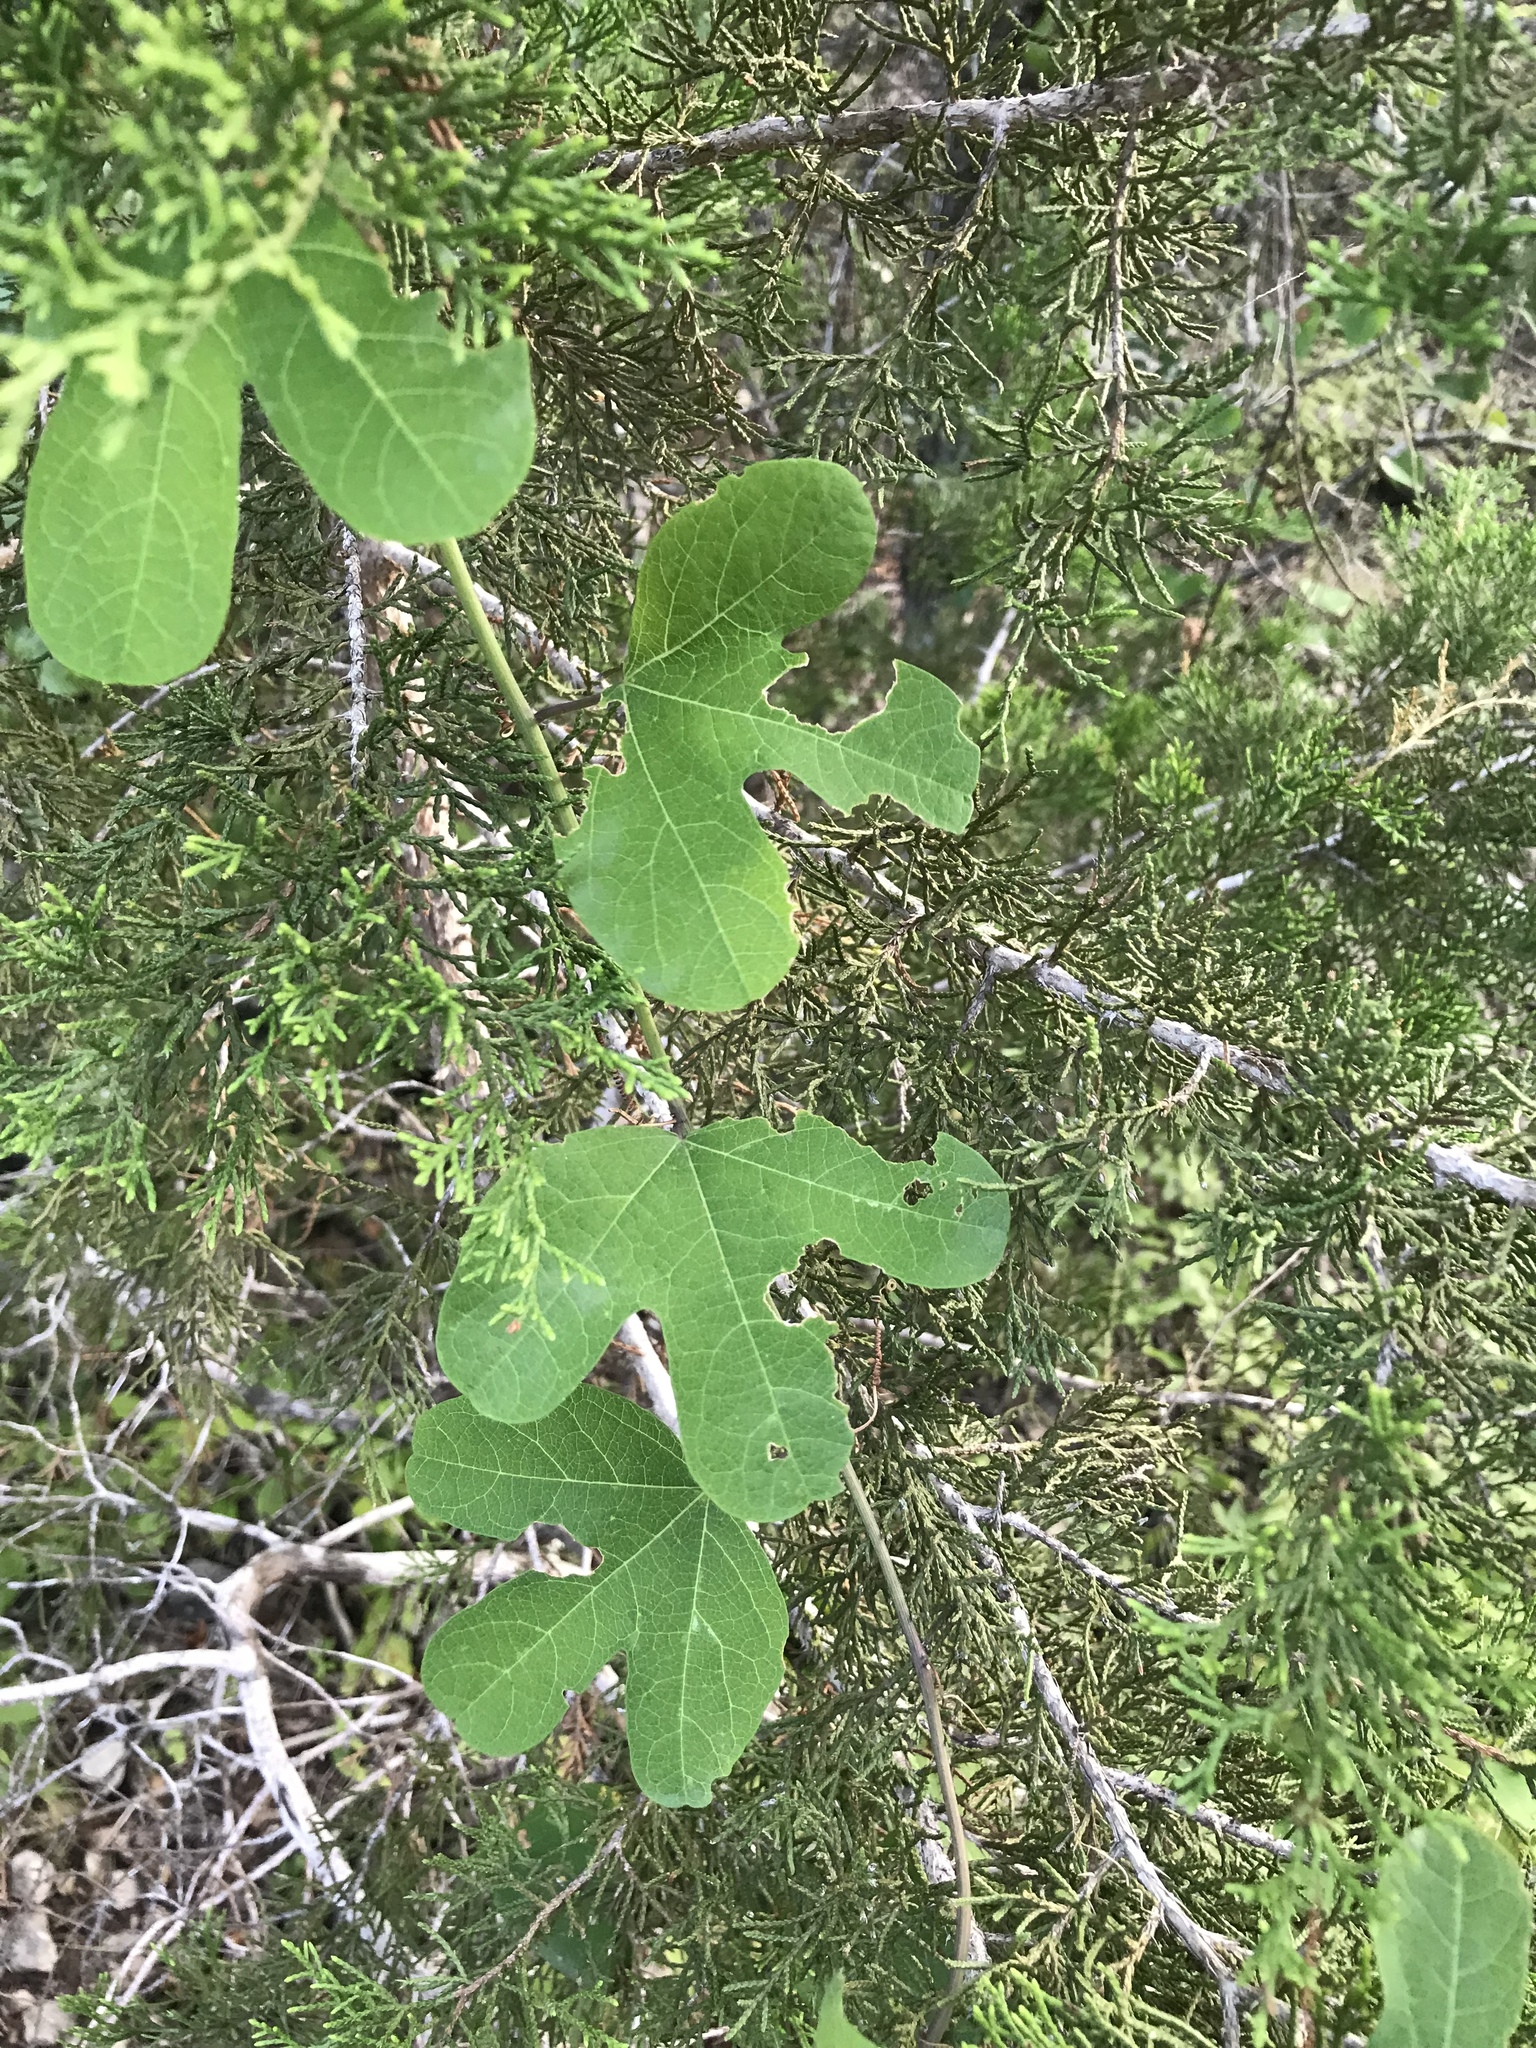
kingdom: Plantae
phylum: Tracheophyta
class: Magnoliopsida
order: Malpighiales
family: Passifloraceae
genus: Passiflora
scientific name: Passiflora affinis
